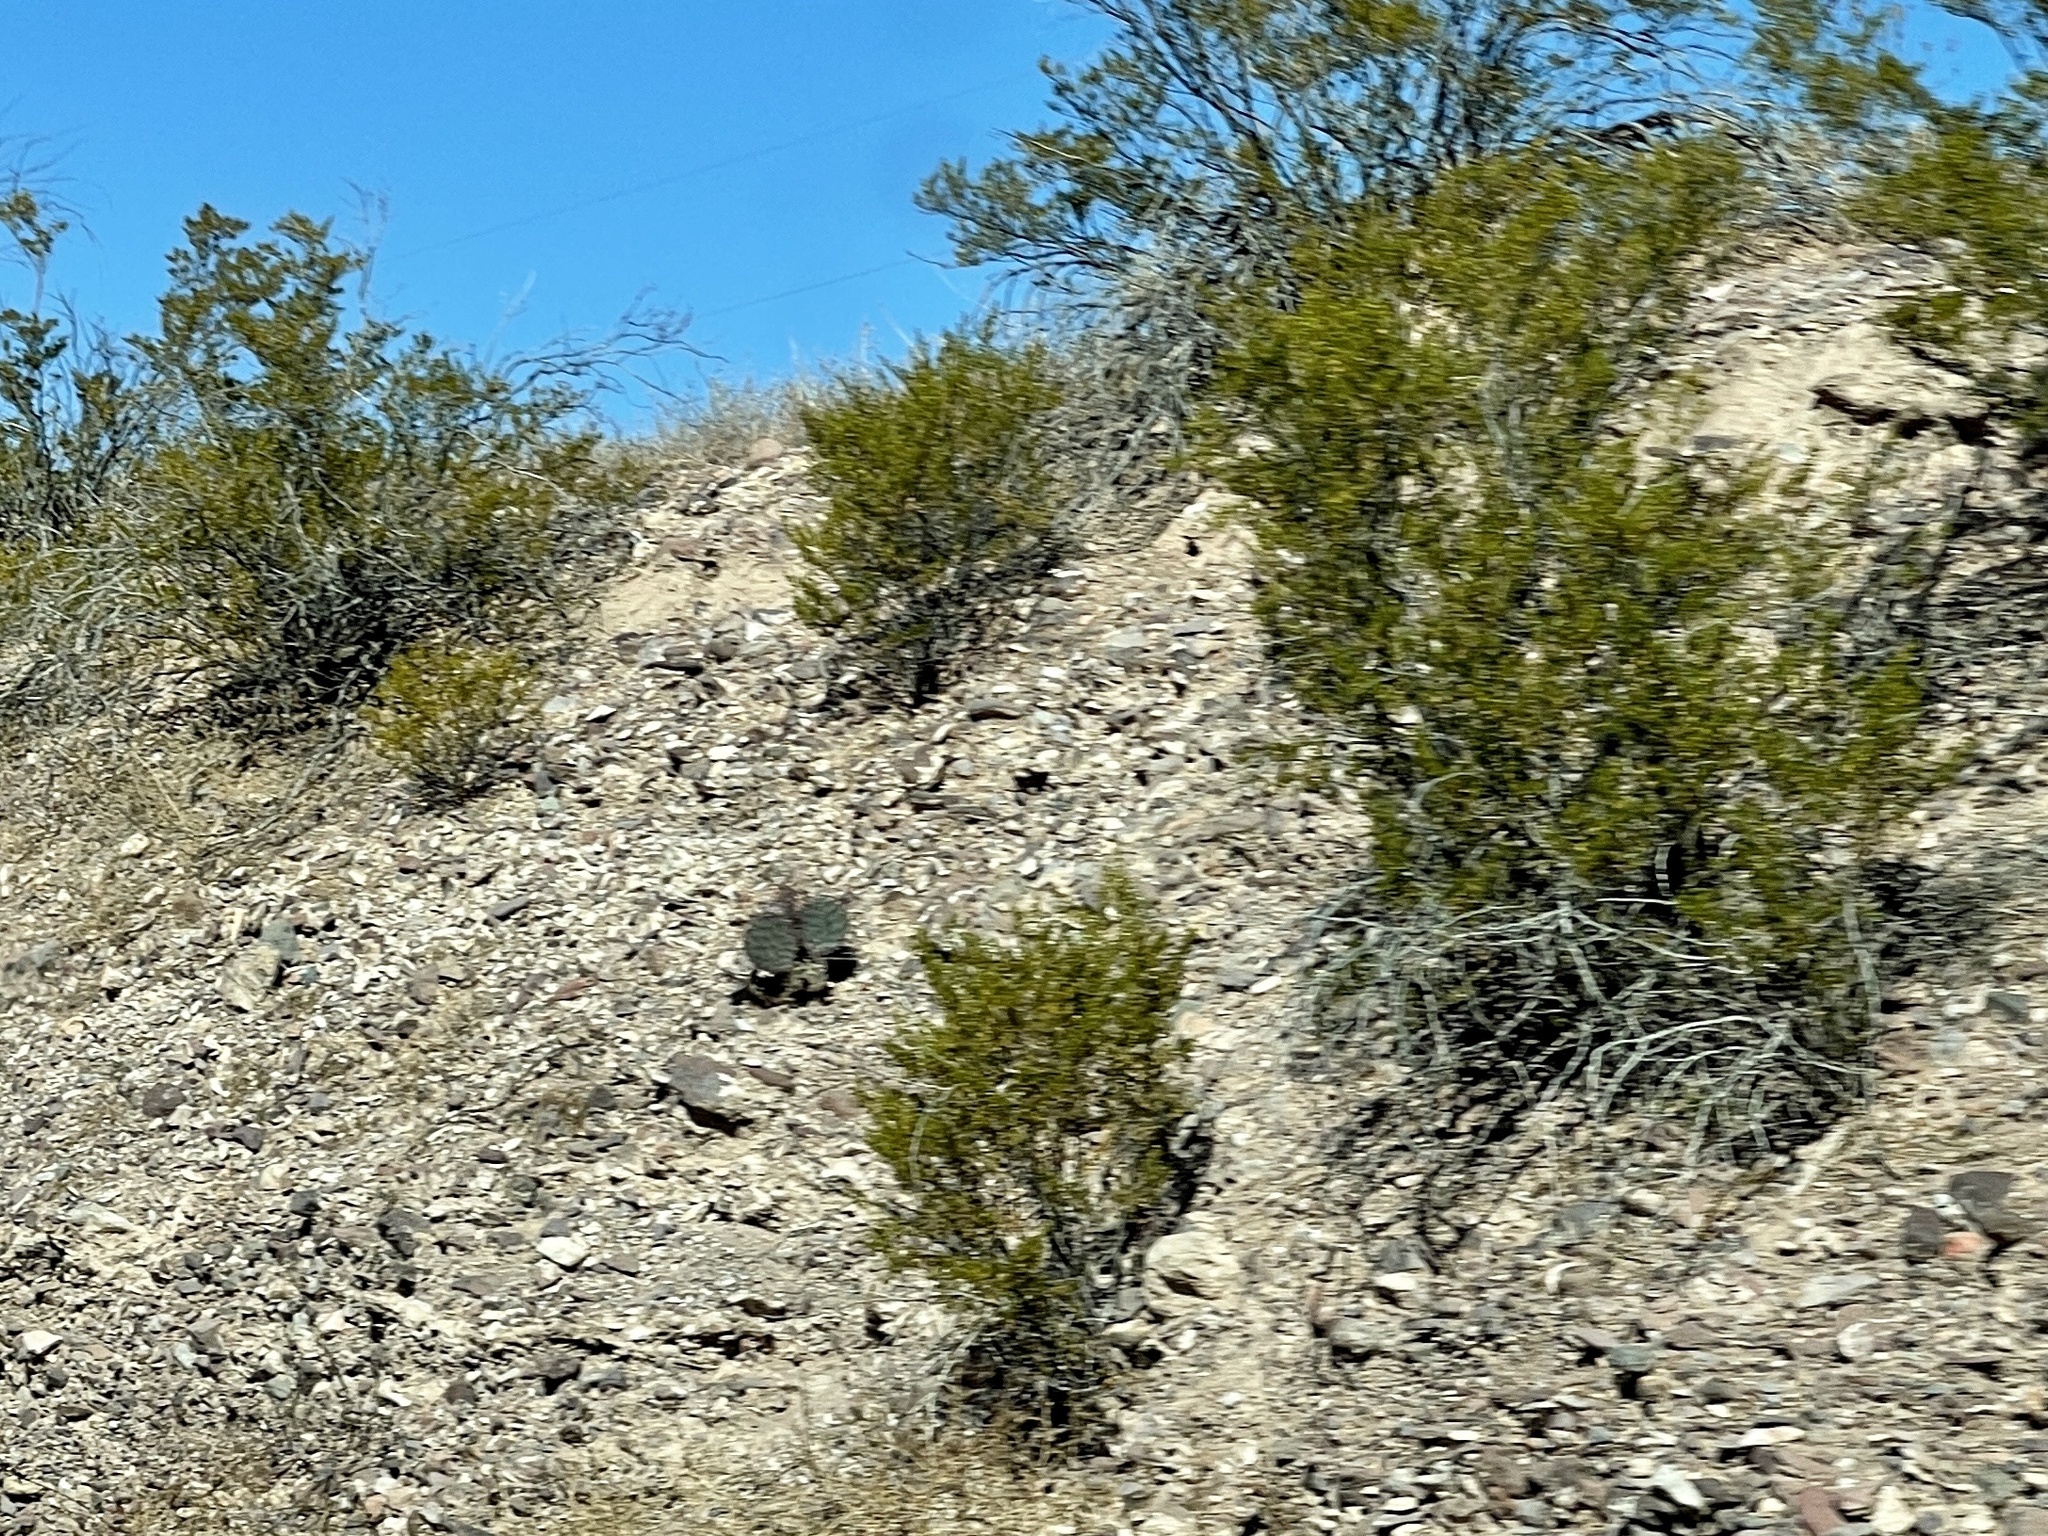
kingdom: Plantae
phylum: Tracheophyta
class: Magnoliopsida
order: Zygophyllales
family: Zygophyllaceae
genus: Larrea
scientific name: Larrea tridentata
